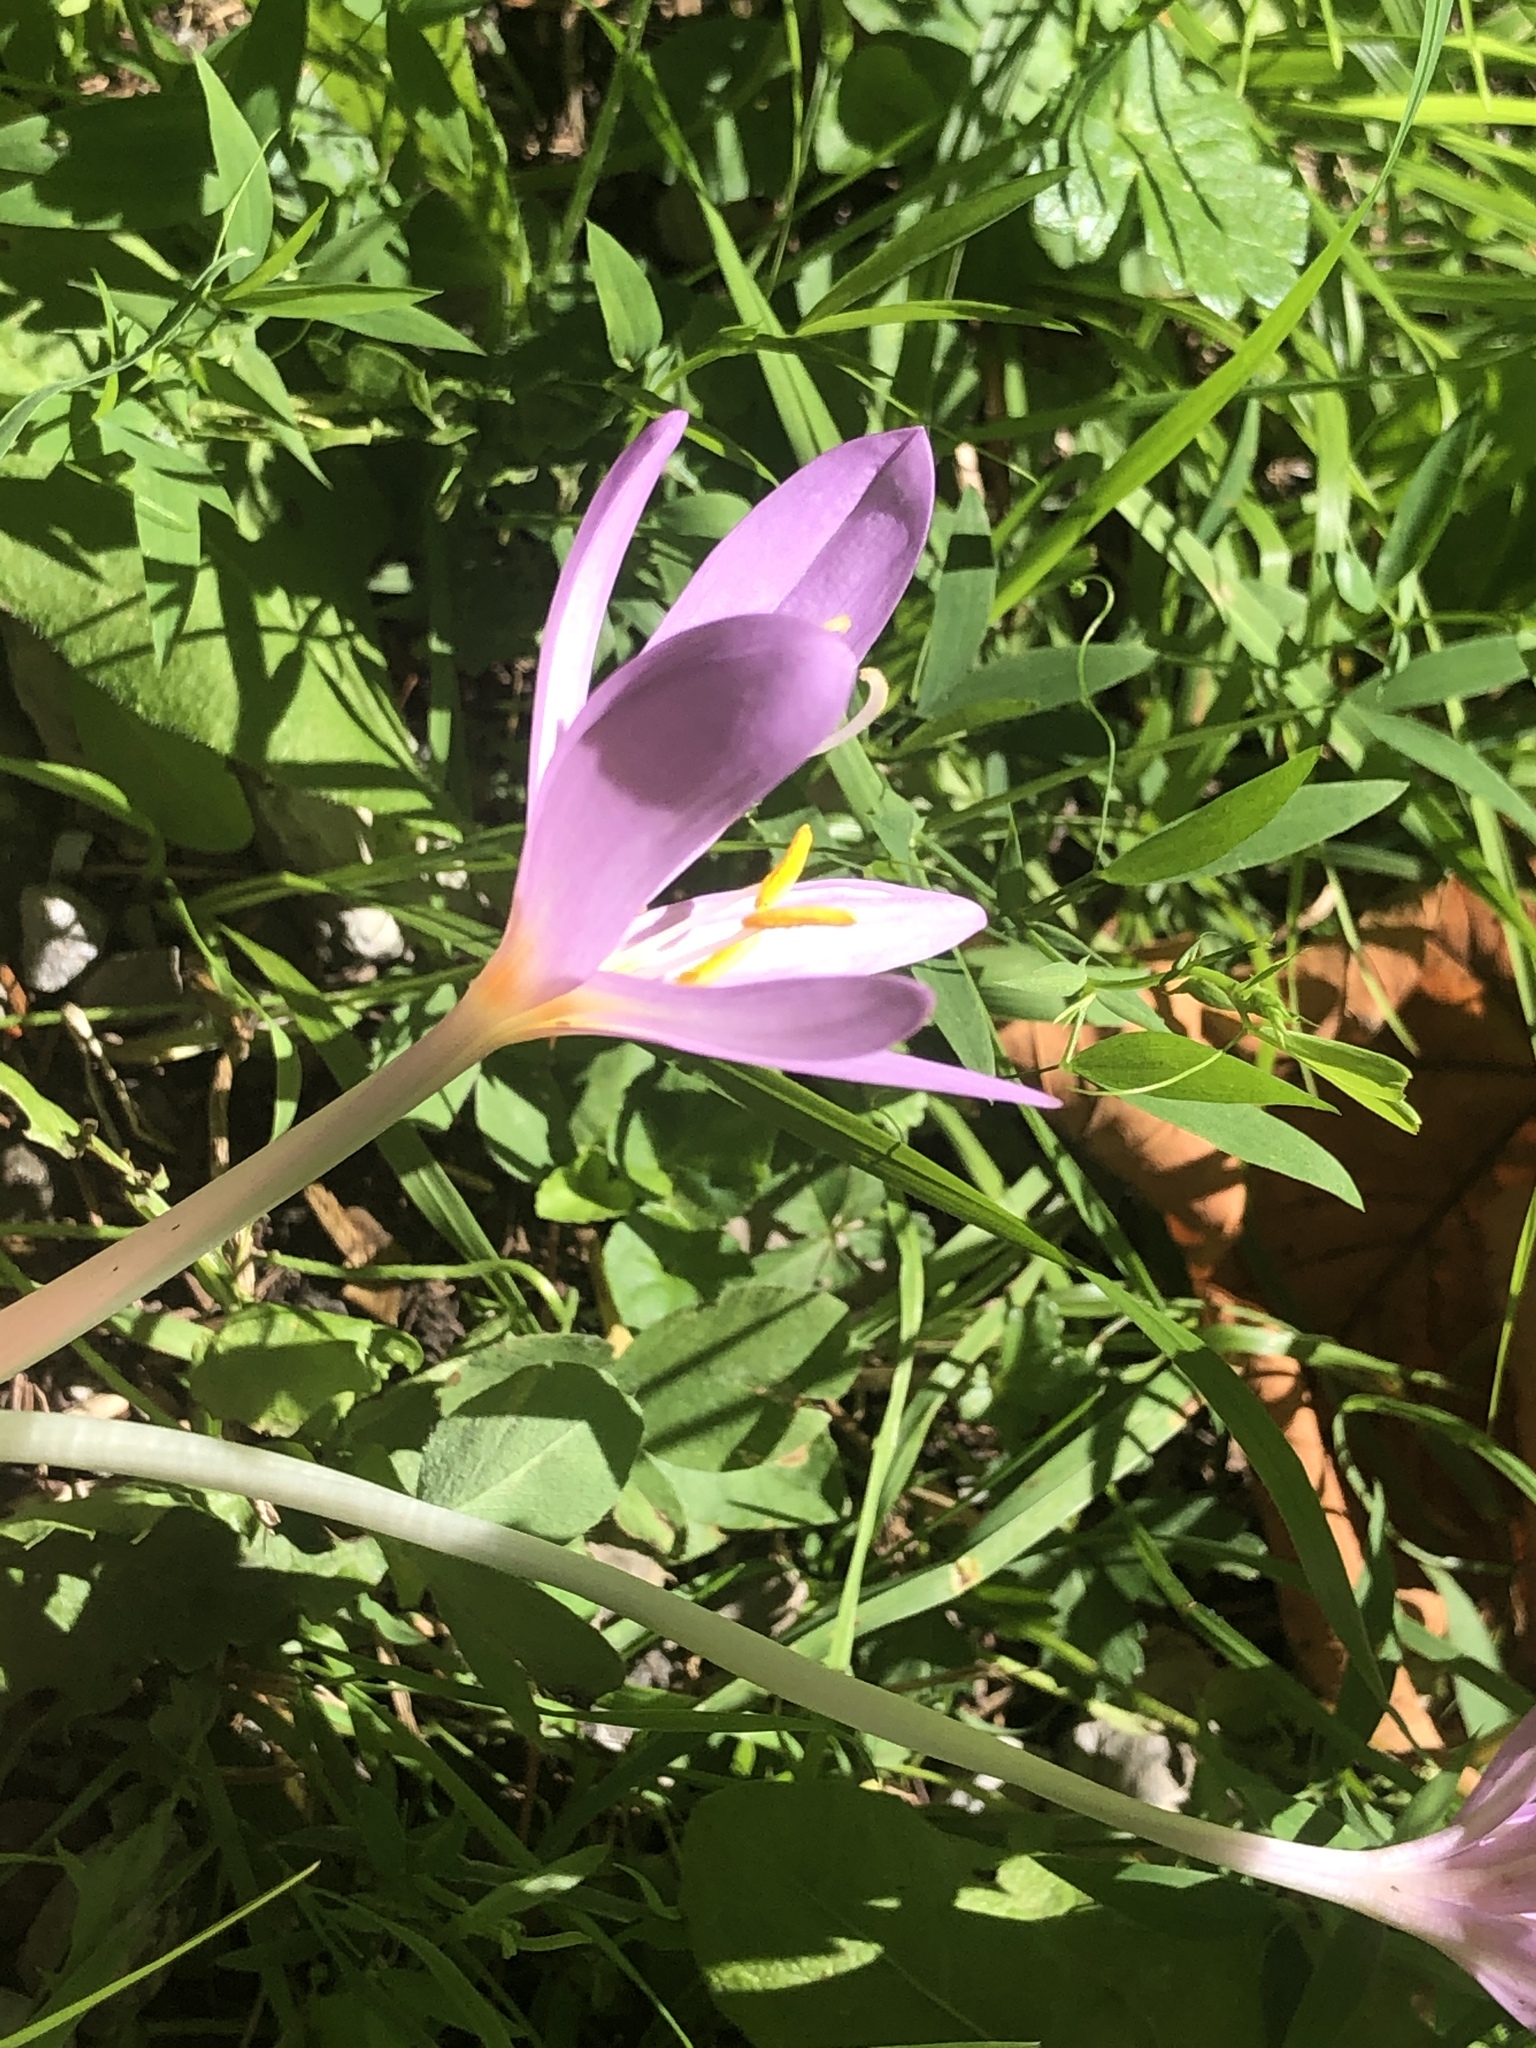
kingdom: Plantae
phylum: Tracheophyta
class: Liliopsida
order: Liliales
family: Colchicaceae
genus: Colchicum
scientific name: Colchicum autumnale
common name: Autumn crocus
